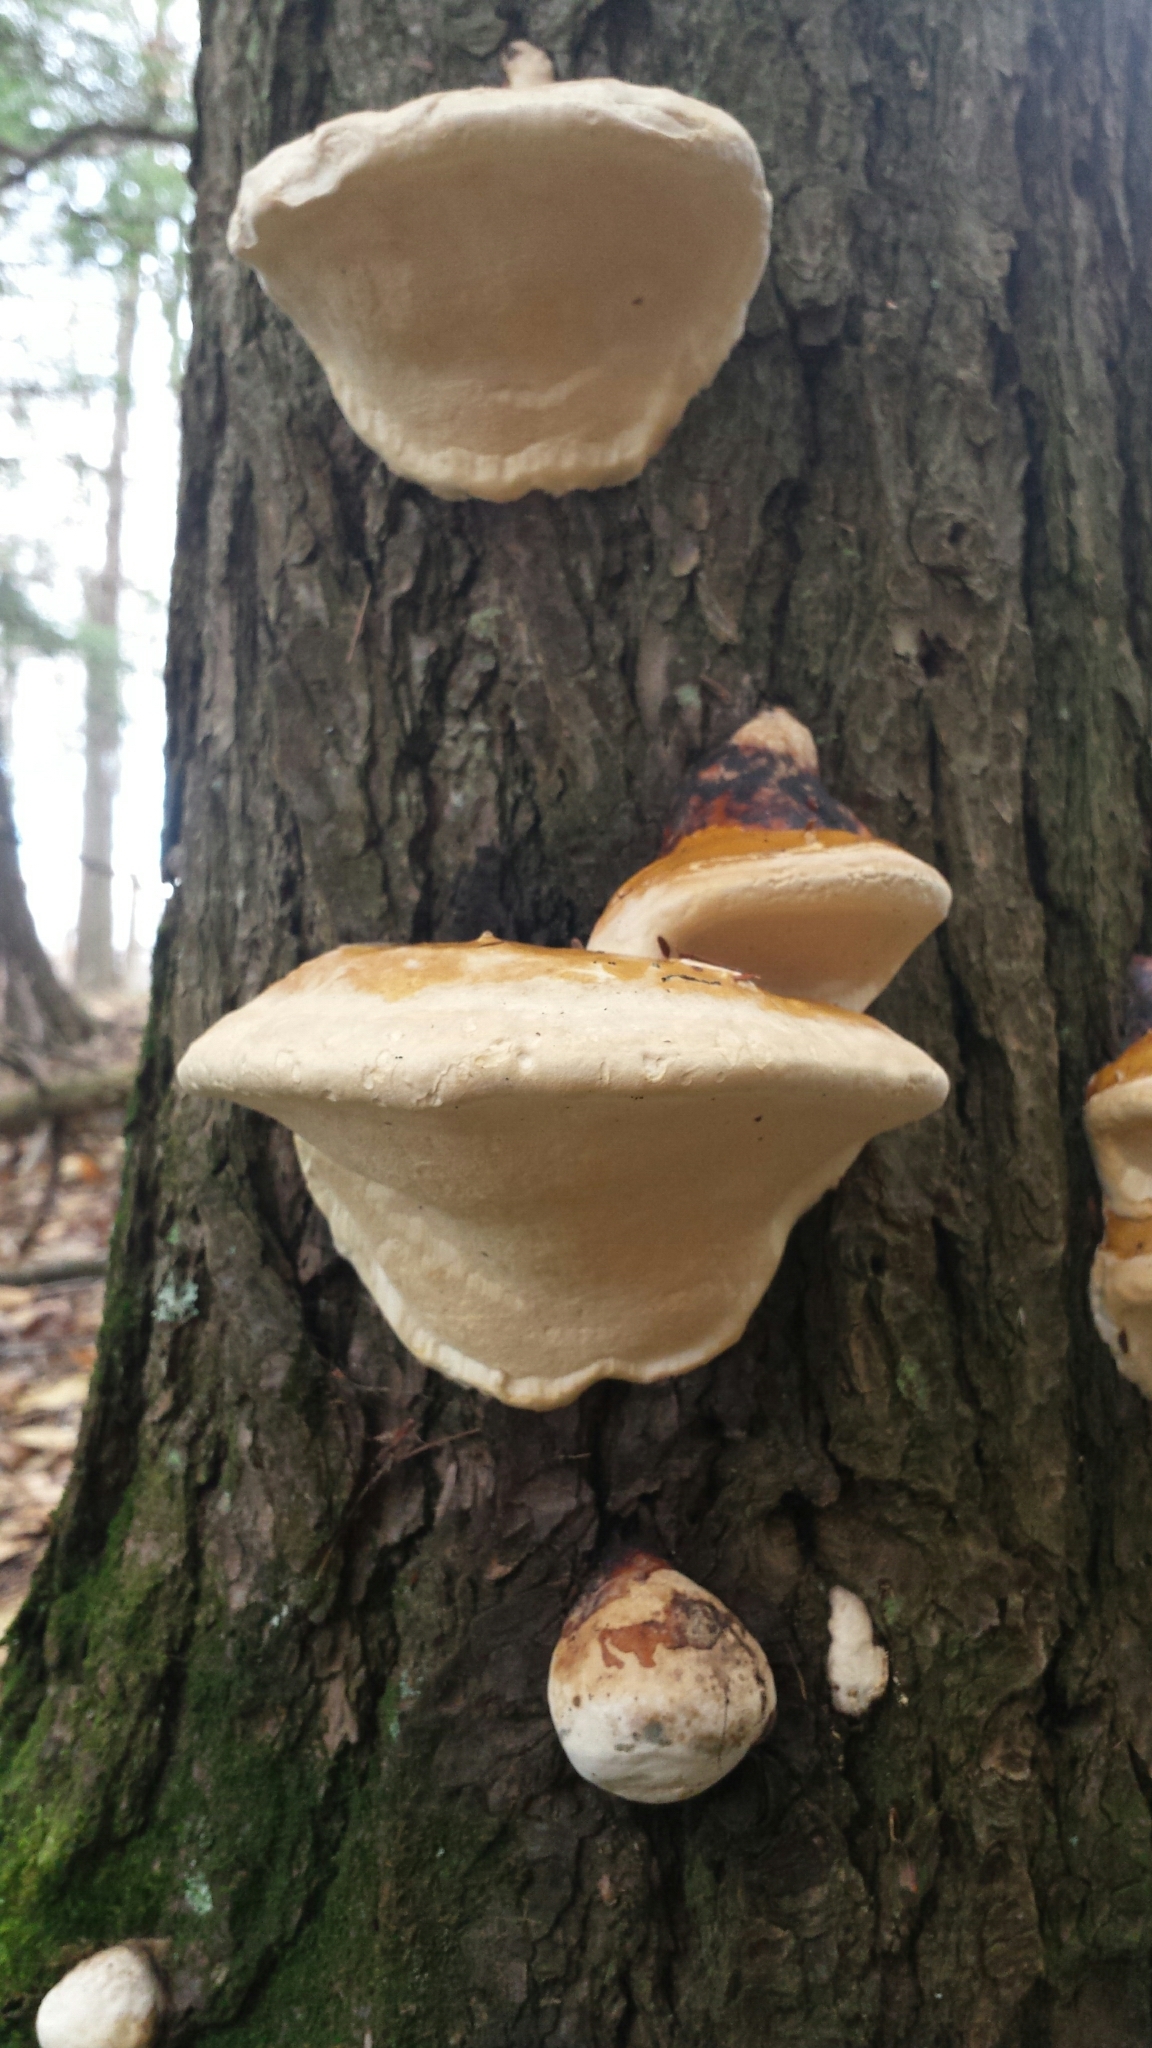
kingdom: Fungi
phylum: Basidiomycota
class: Agaricomycetes
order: Polyporales
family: Polyporaceae
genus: Ganoderma
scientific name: Ganoderma tsugae
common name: Hemlock varnish shelf
